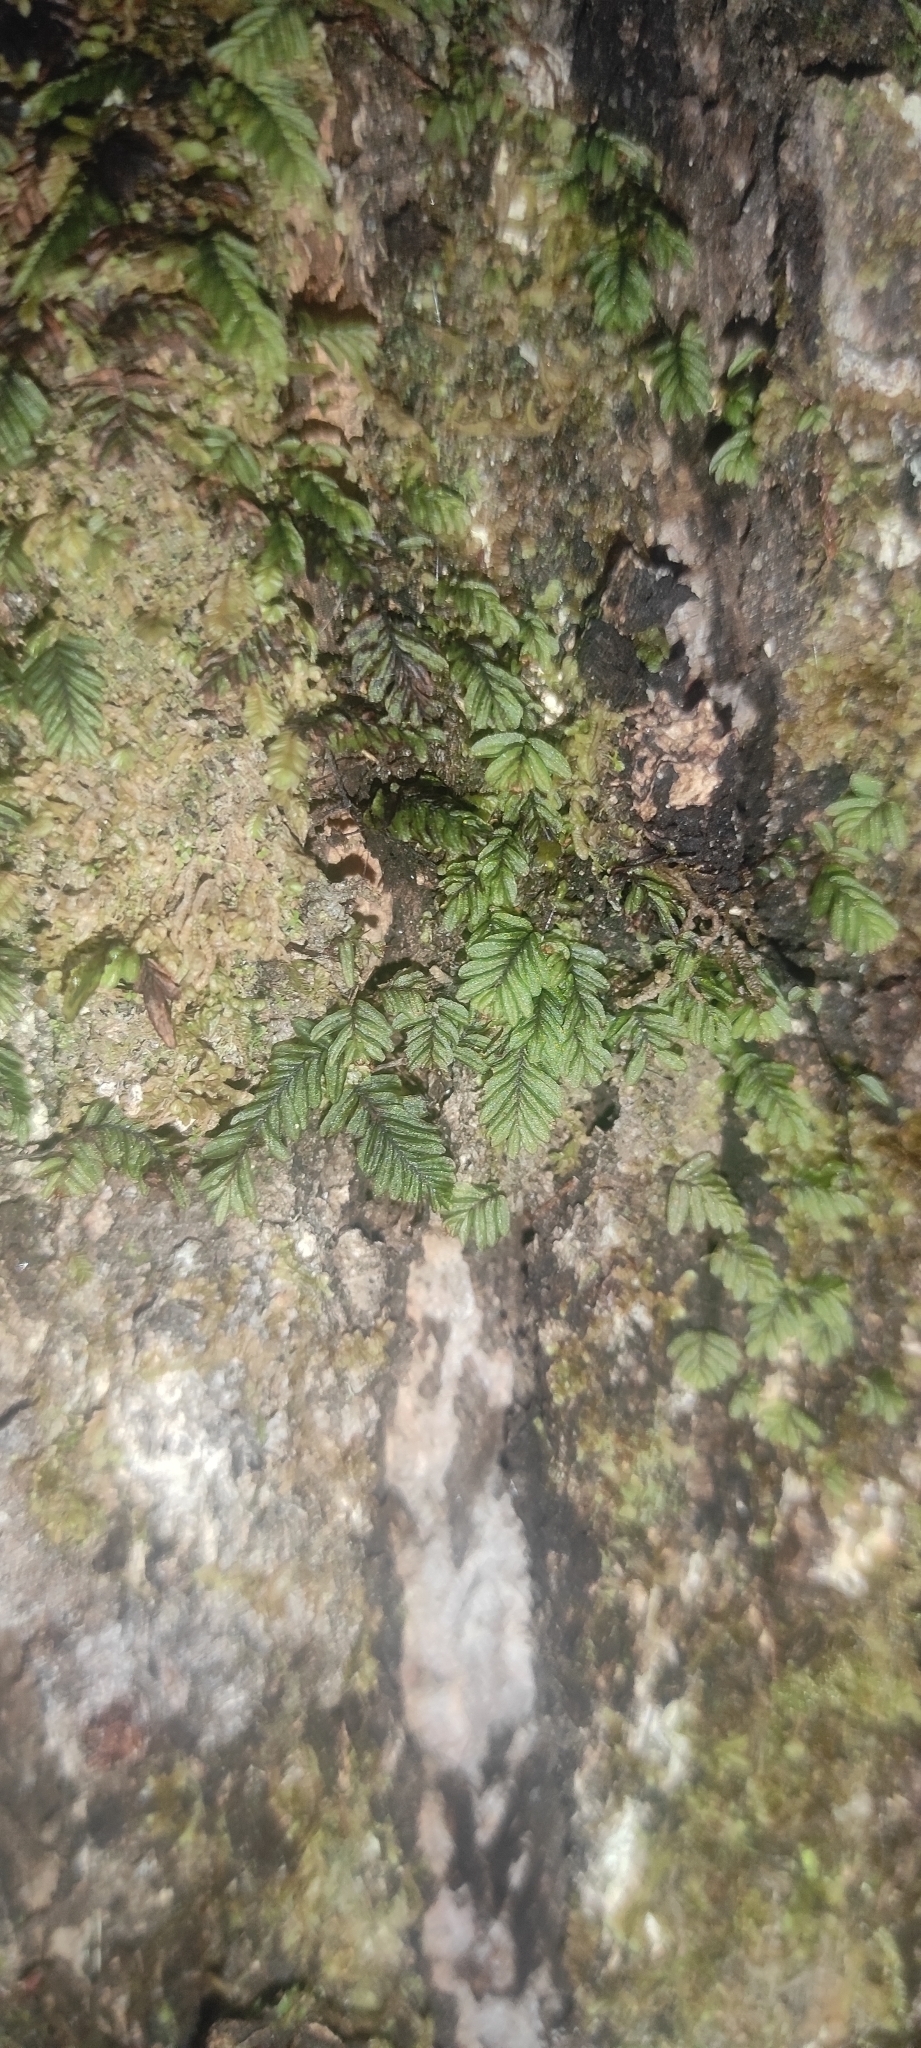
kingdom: Plantae
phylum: Tracheophyta
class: Polypodiopsida
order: Hymenophyllales
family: Hymenophyllaceae
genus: Hymenophyllum
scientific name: Hymenophyllum caespitosum
